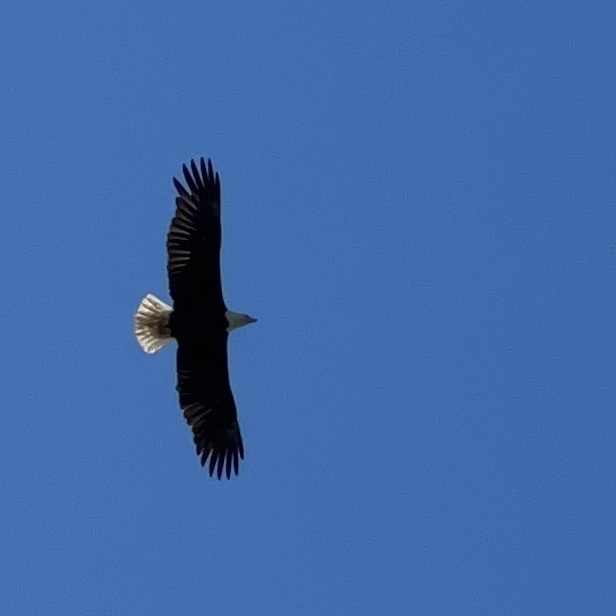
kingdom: Animalia
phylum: Chordata
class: Aves
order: Accipitriformes
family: Accipitridae
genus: Haliaeetus
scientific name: Haliaeetus leucocephalus
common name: Bald eagle
